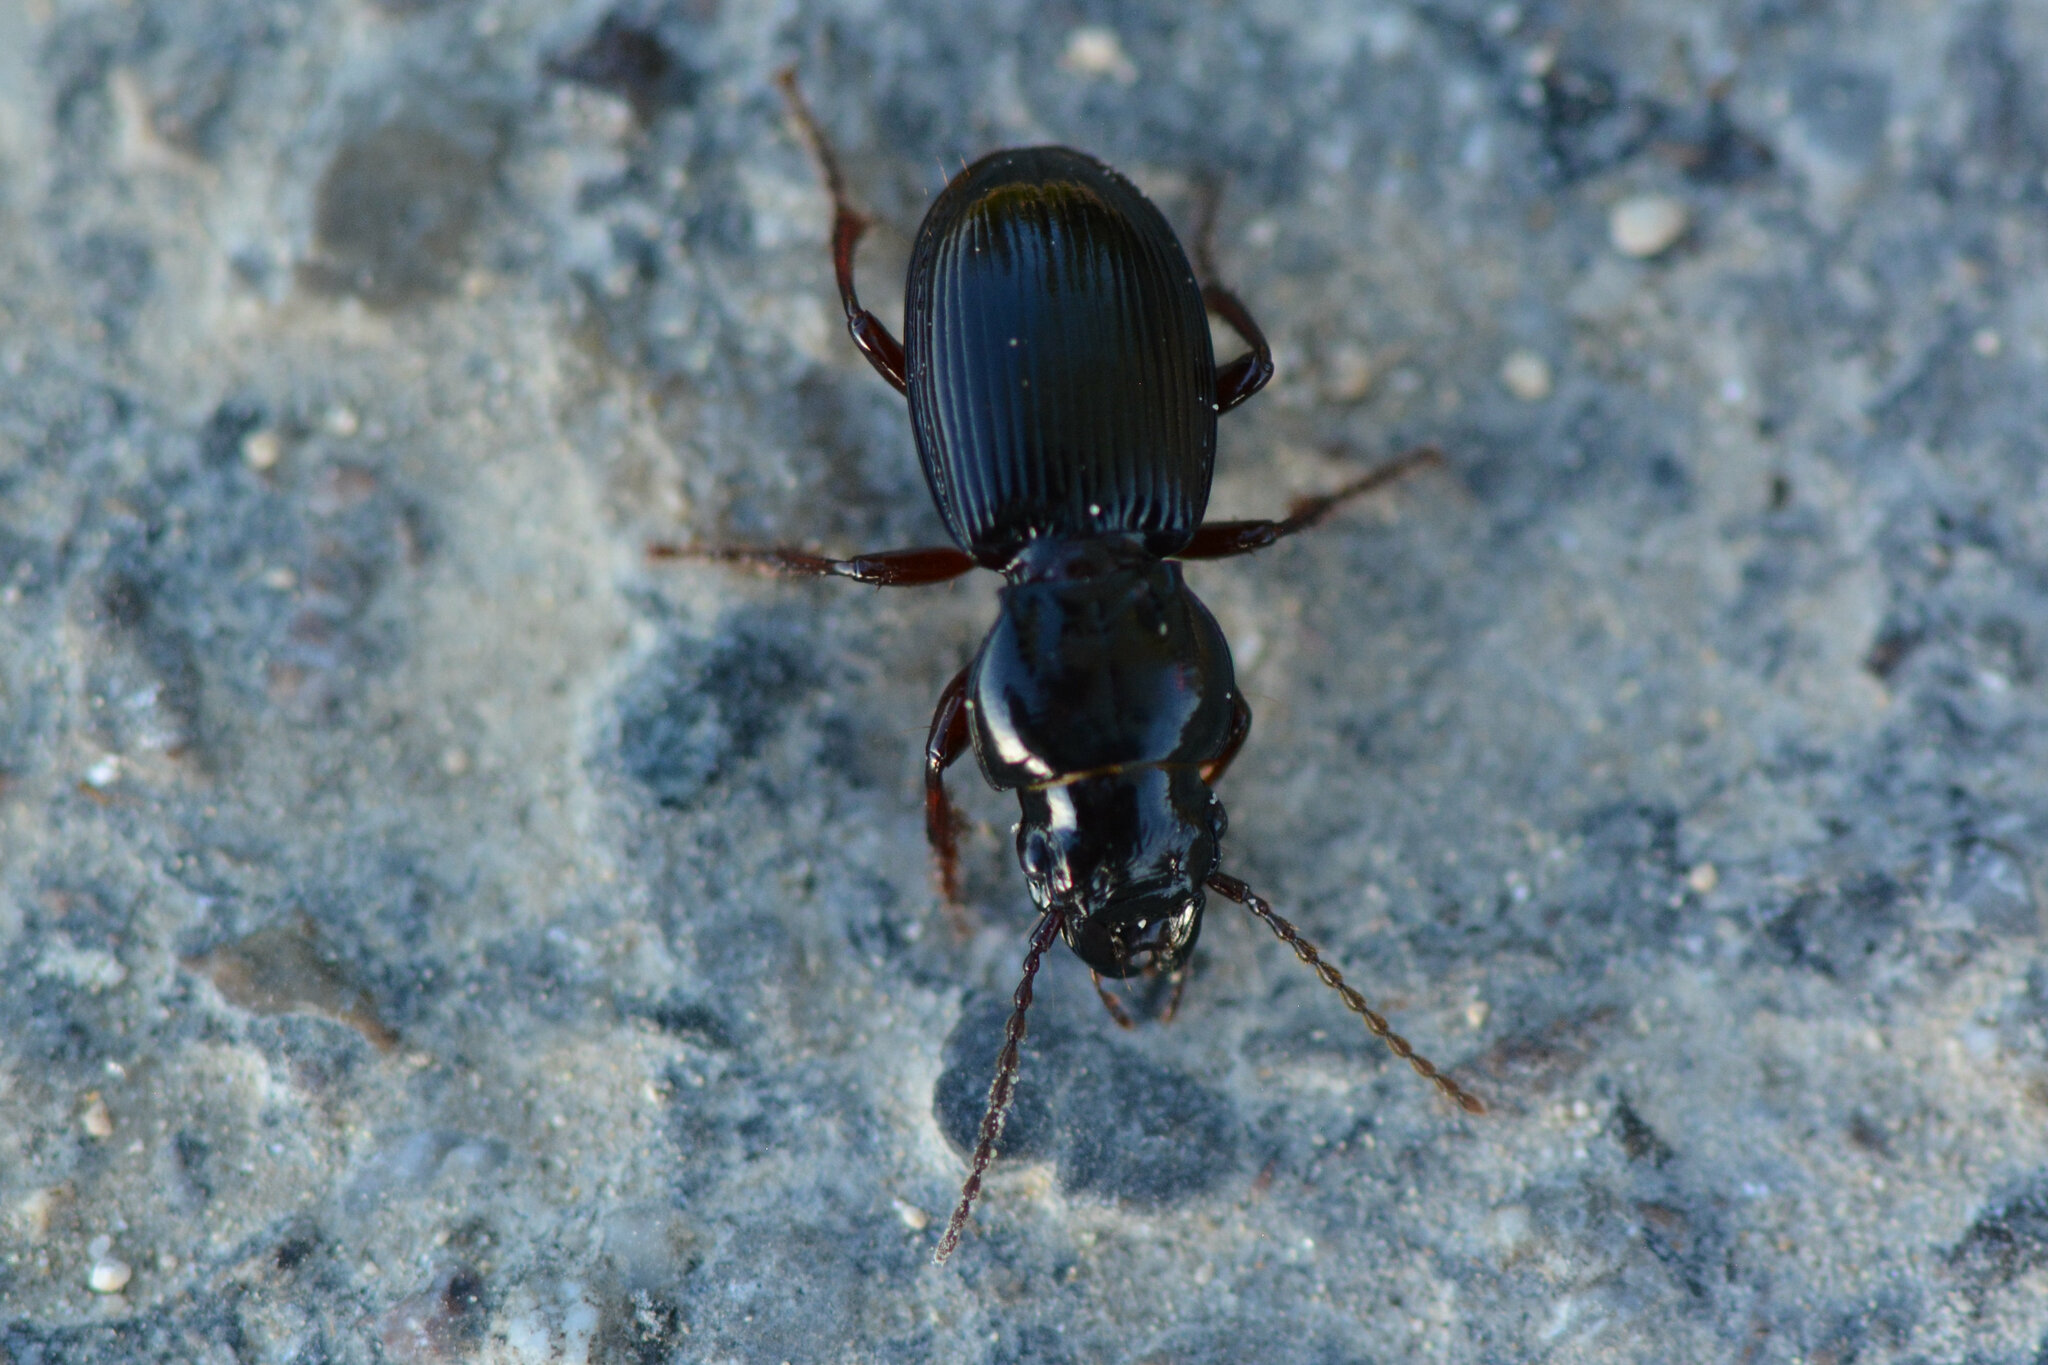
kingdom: Animalia
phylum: Arthropoda
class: Insecta
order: Coleoptera
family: Carabidae
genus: Molops
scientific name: Molops piceus
